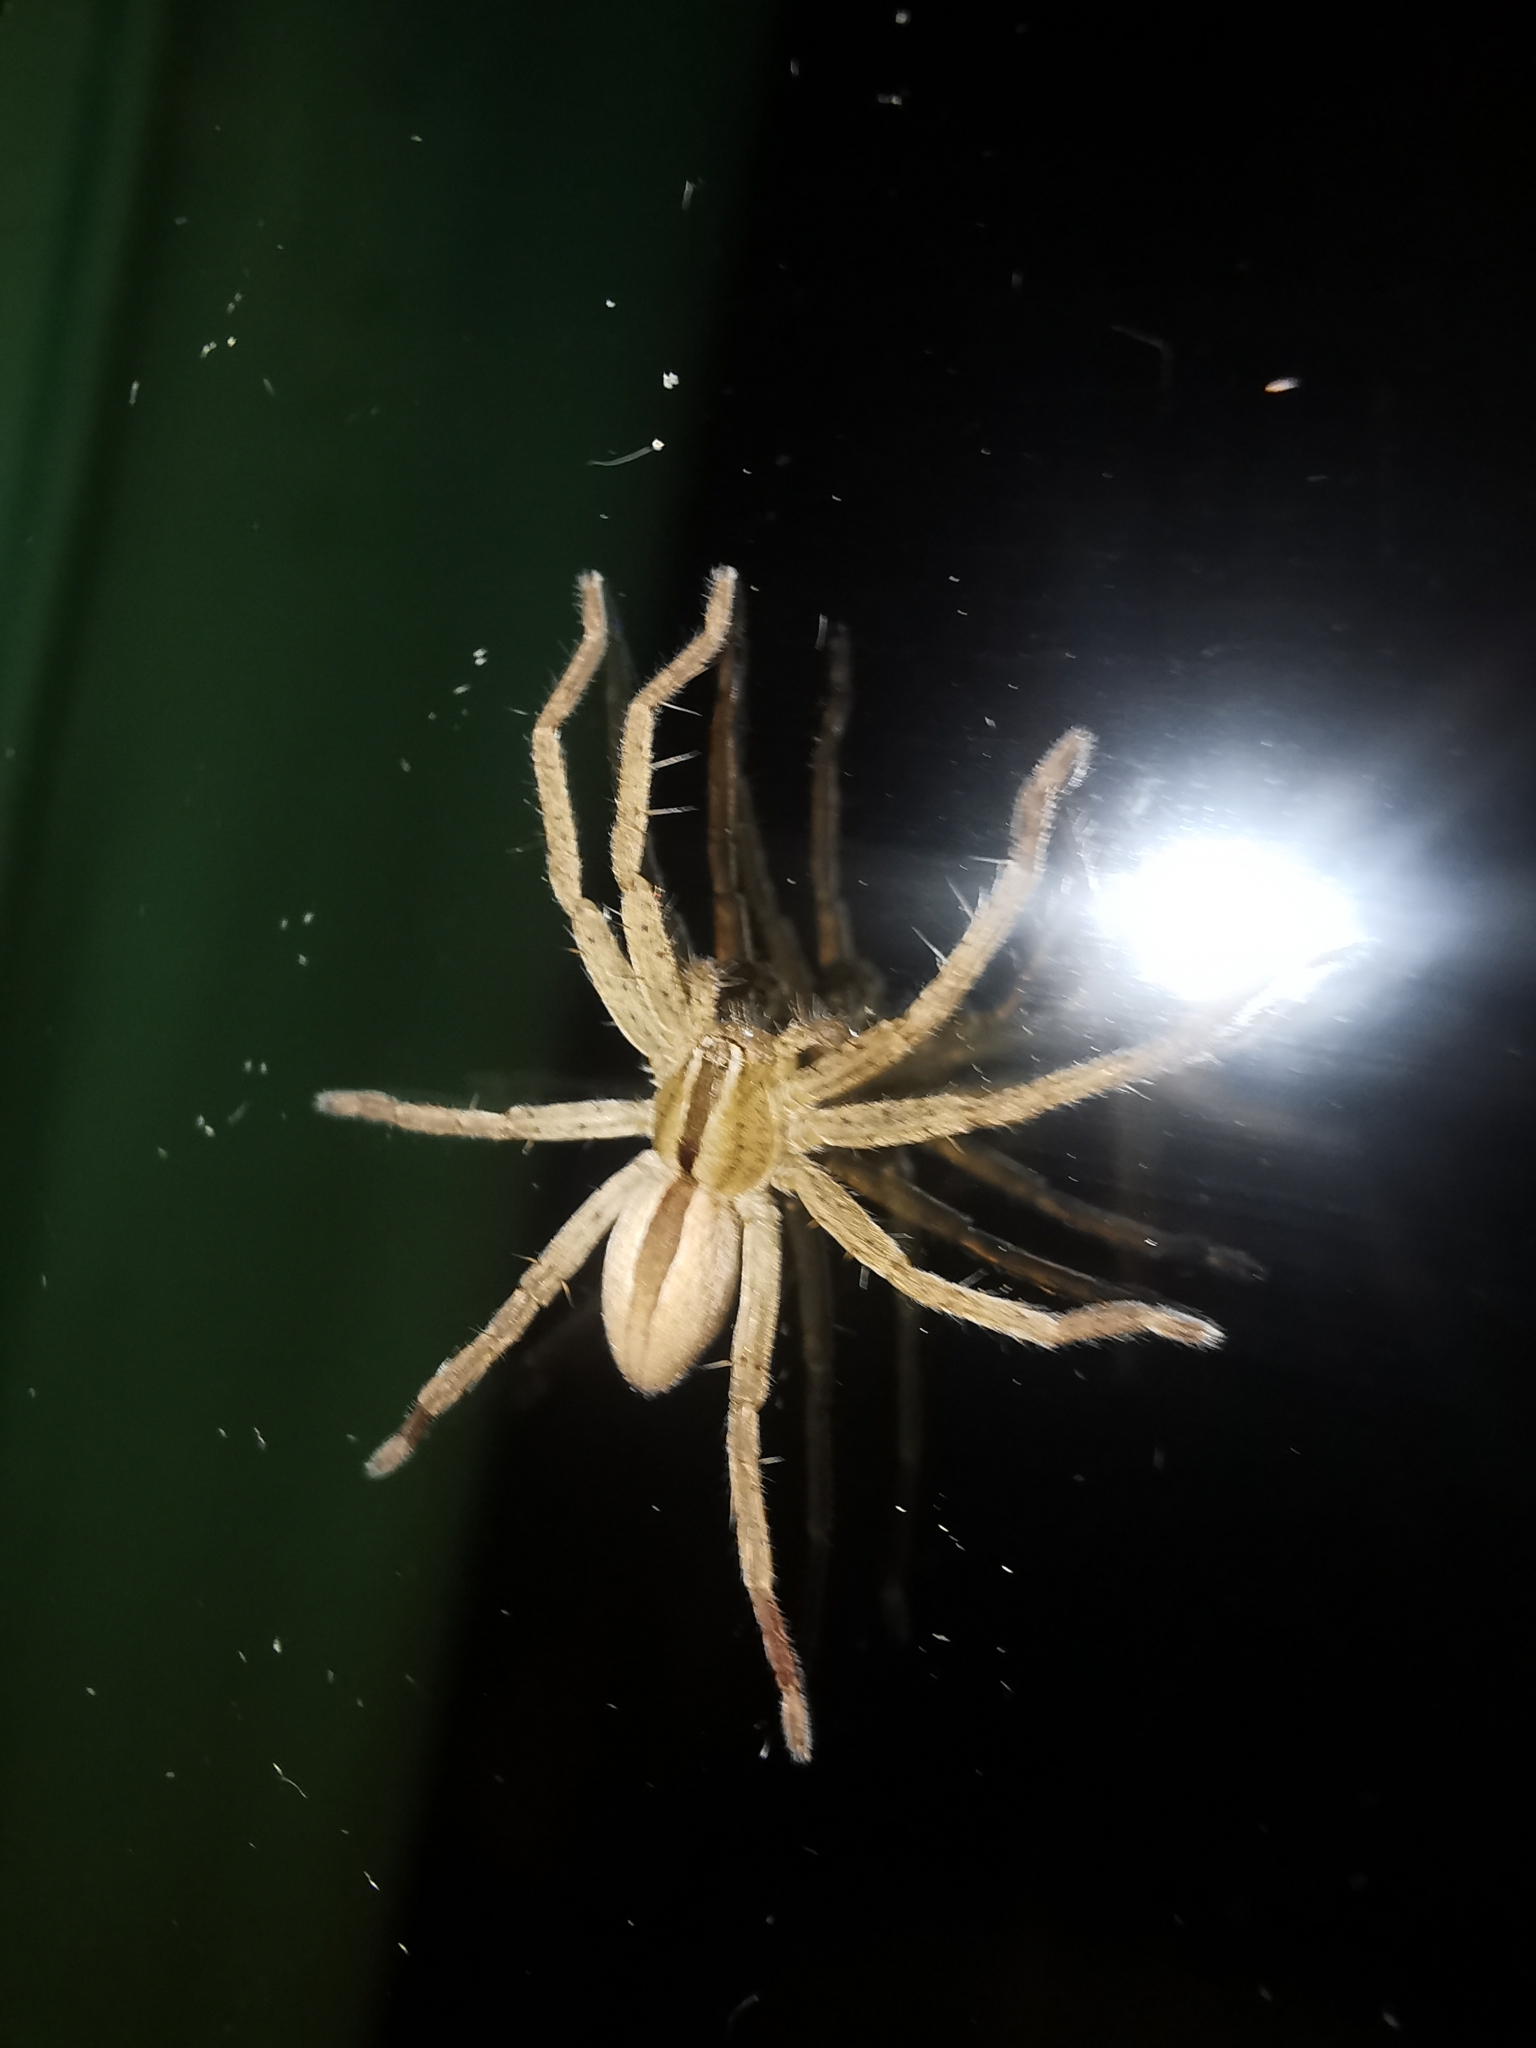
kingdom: Animalia
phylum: Arthropoda
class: Arachnida
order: Araneae
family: Sparassidae
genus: Micrommata
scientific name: Micrommata ligurina
